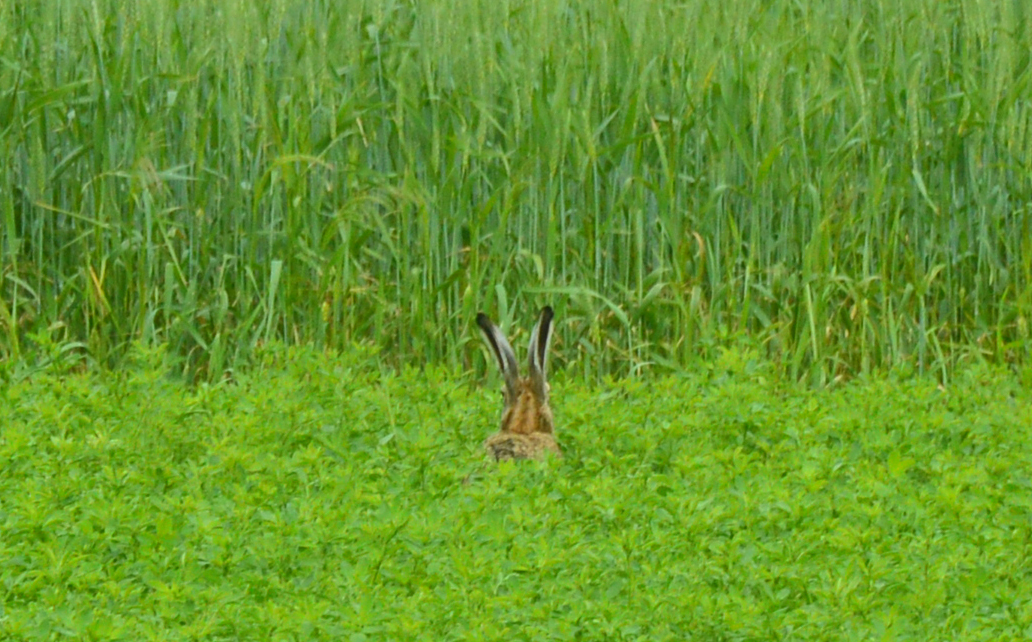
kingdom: Animalia
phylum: Chordata
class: Mammalia
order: Lagomorpha
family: Leporidae
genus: Lepus
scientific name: Lepus europaeus
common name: European hare
